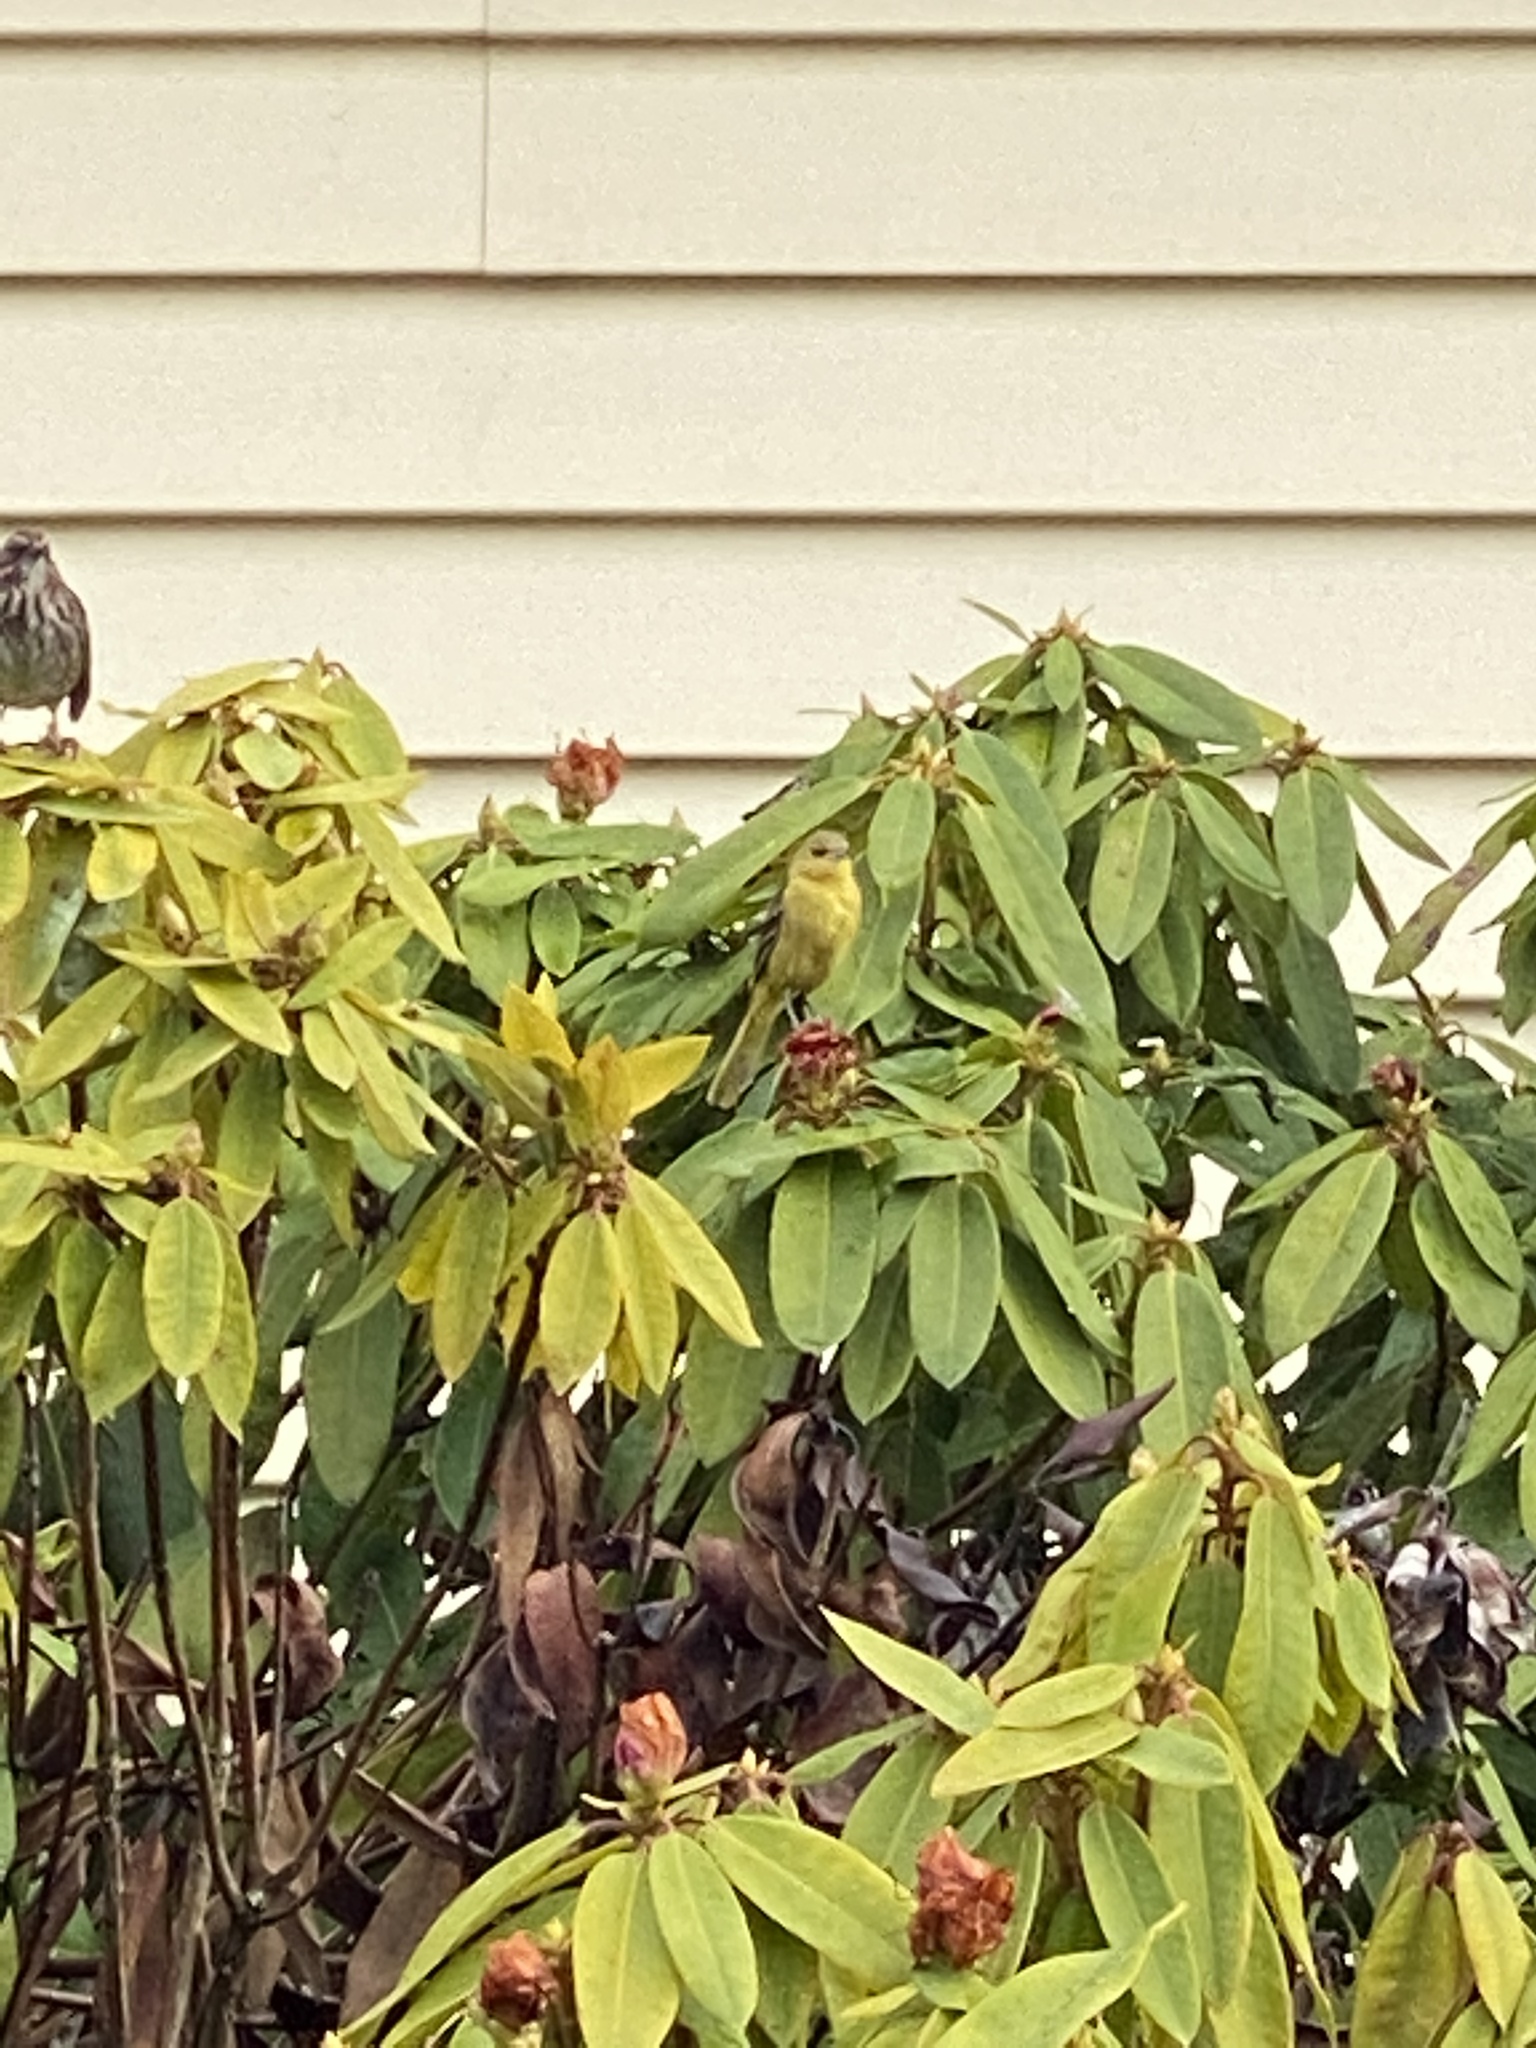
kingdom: Animalia
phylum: Chordata
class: Aves
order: Passeriformes
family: Icteridae
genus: Icterus
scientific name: Icterus spurius
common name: Orchard oriole
